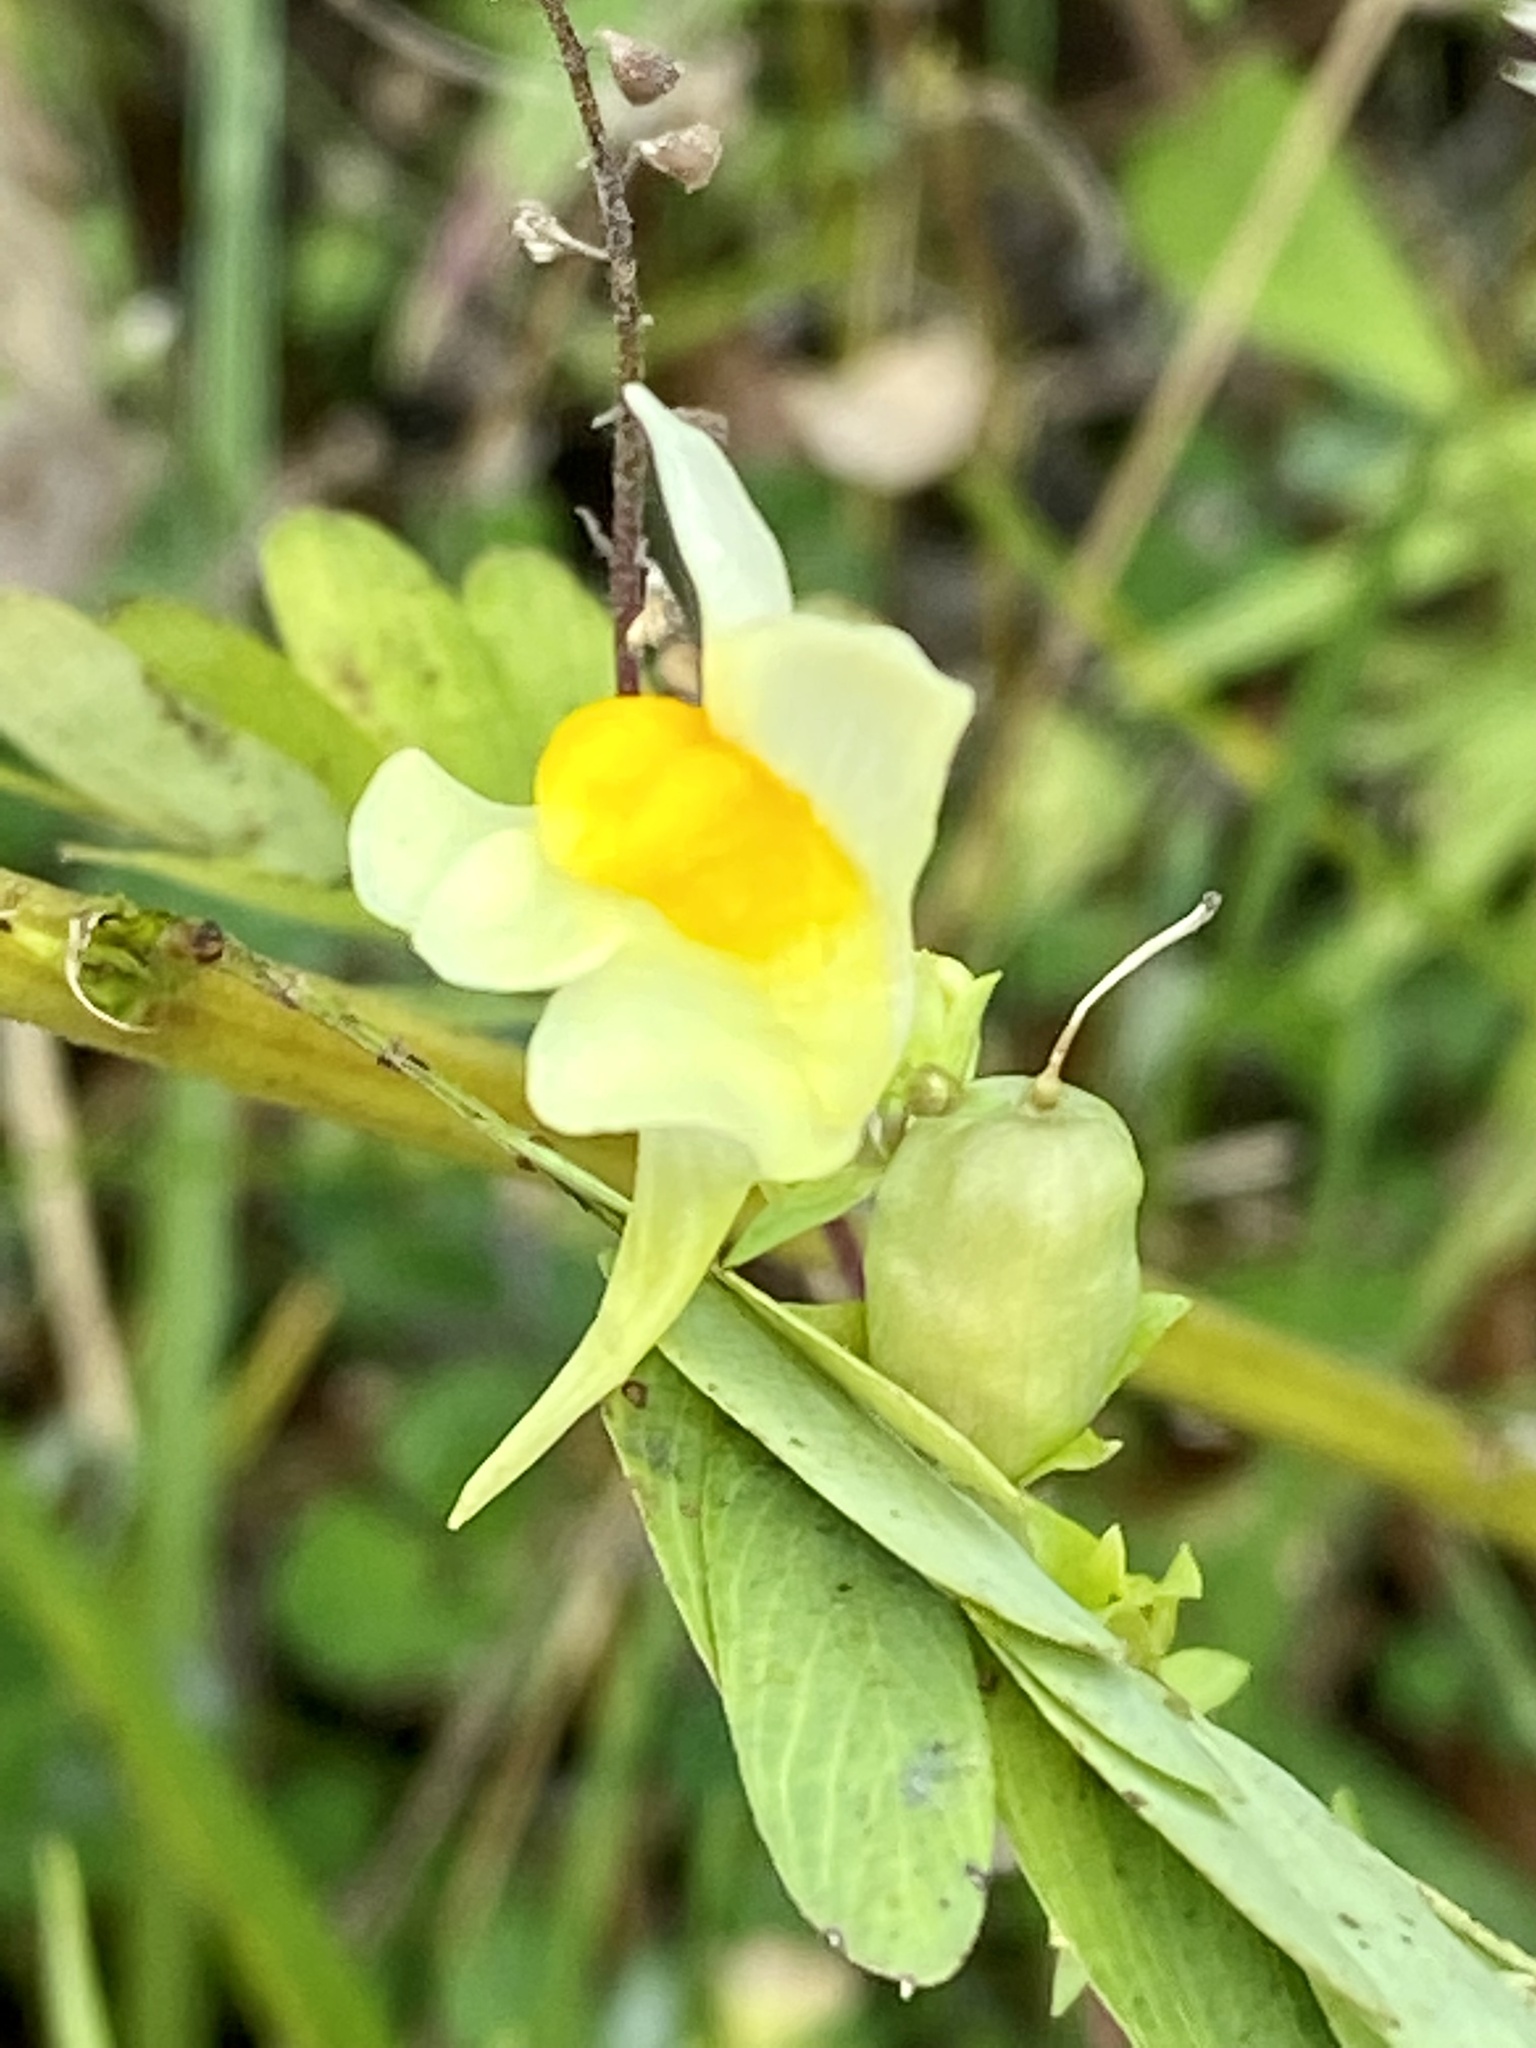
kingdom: Plantae
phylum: Tracheophyta
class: Magnoliopsida
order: Lamiales
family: Plantaginaceae
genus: Linaria
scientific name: Linaria vulgaris
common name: Butter and eggs
